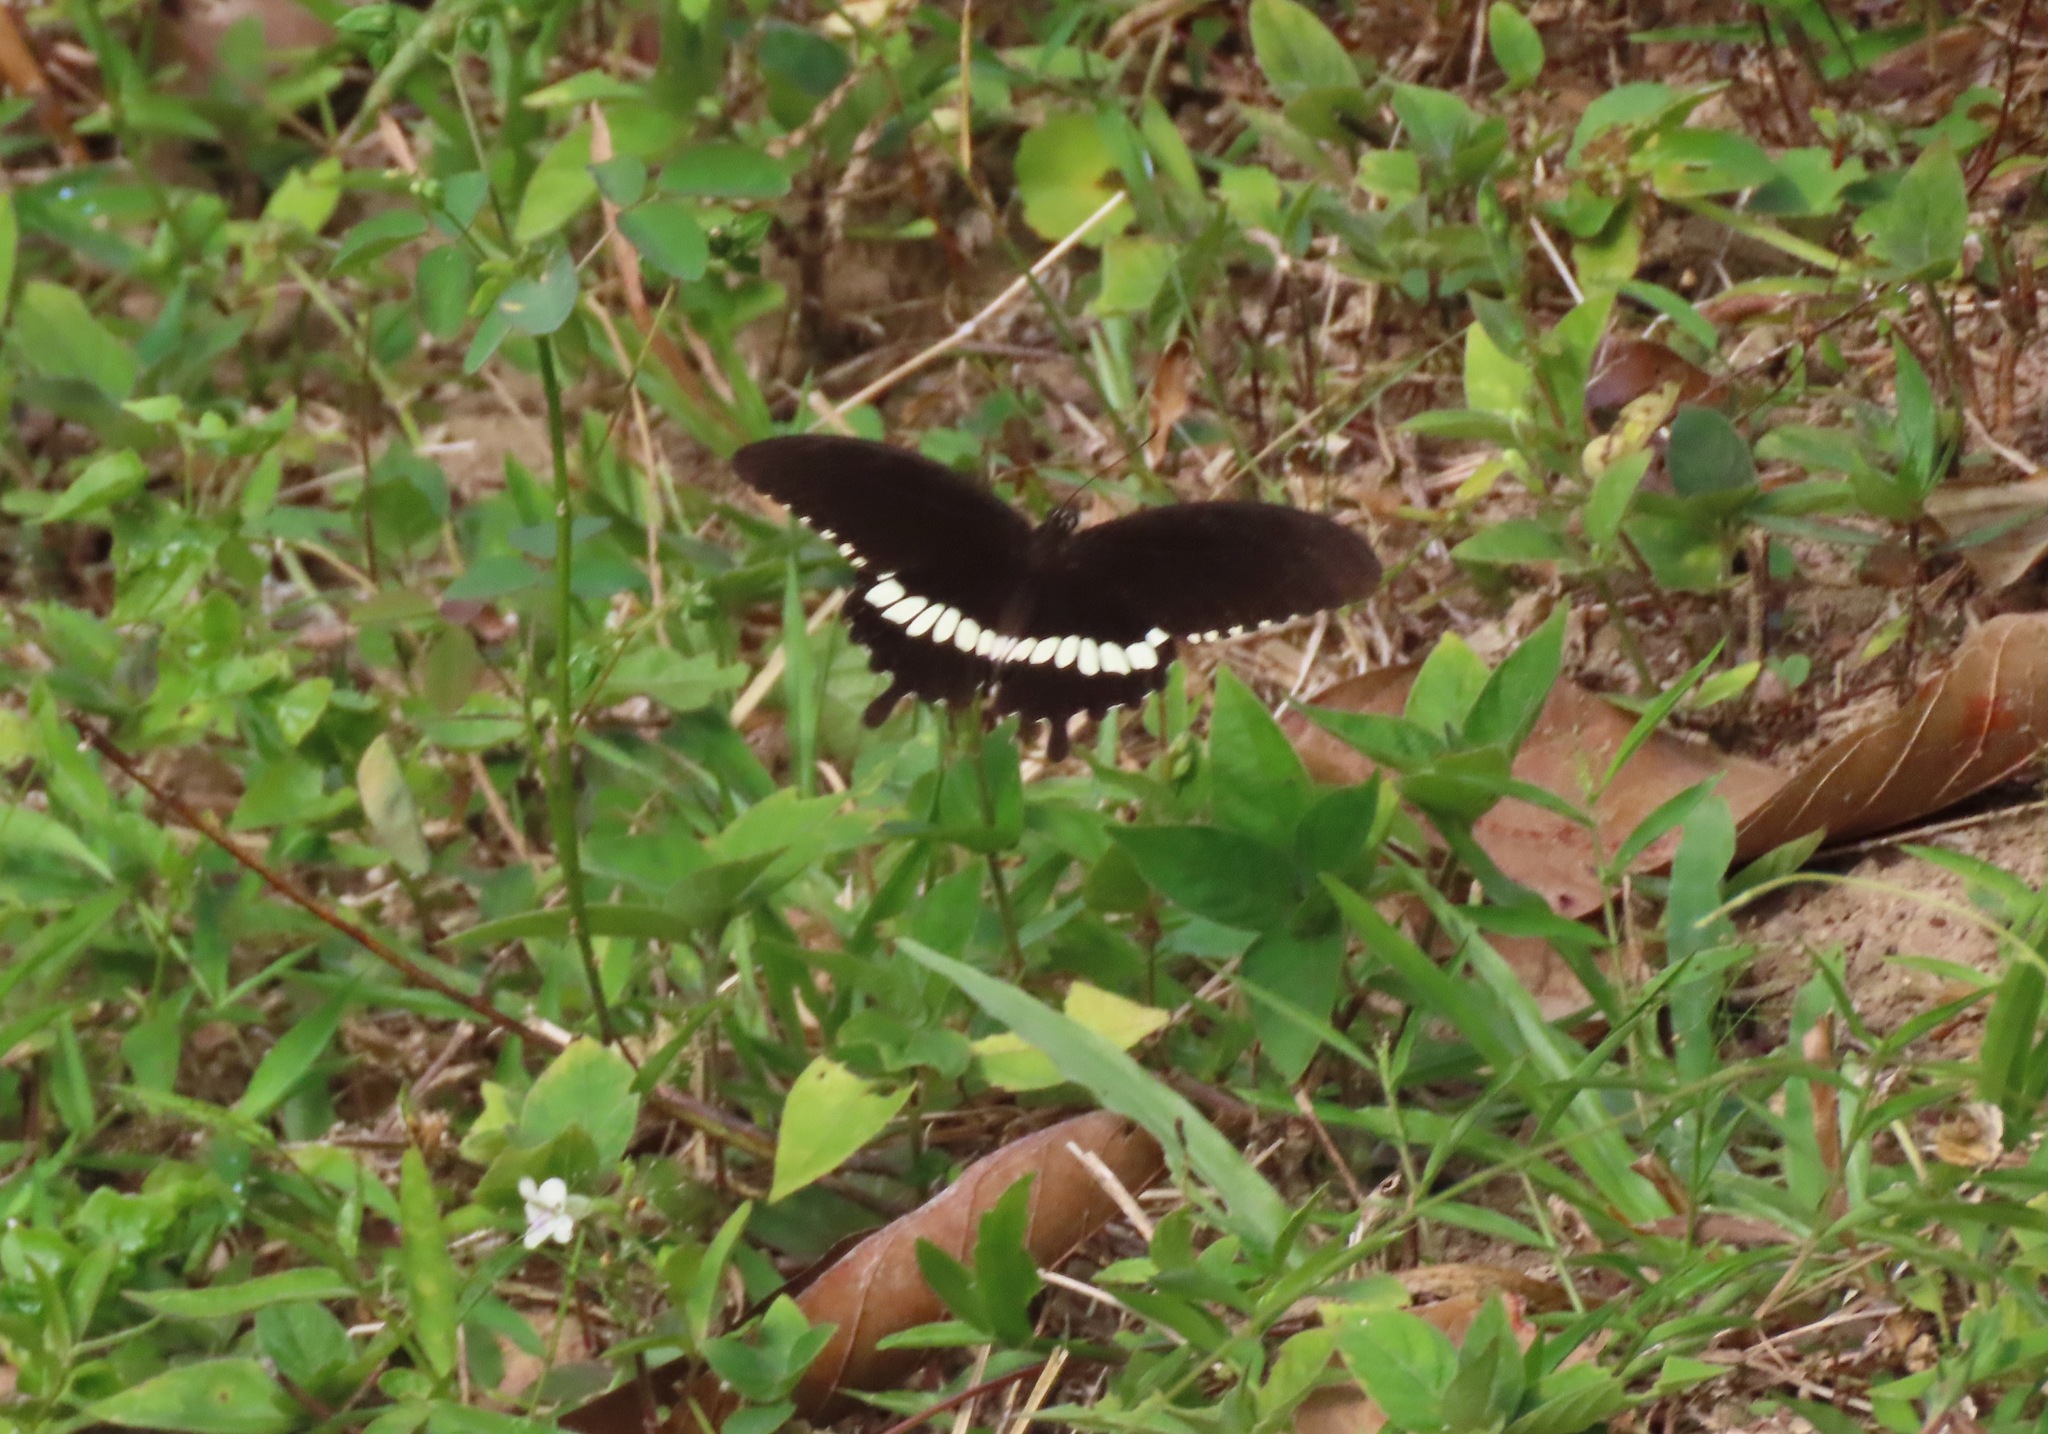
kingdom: Animalia
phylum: Arthropoda
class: Insecta
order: Lepidoptera
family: Papilionidae
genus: Papilio
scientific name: Papilio polytes
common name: Common mormon
